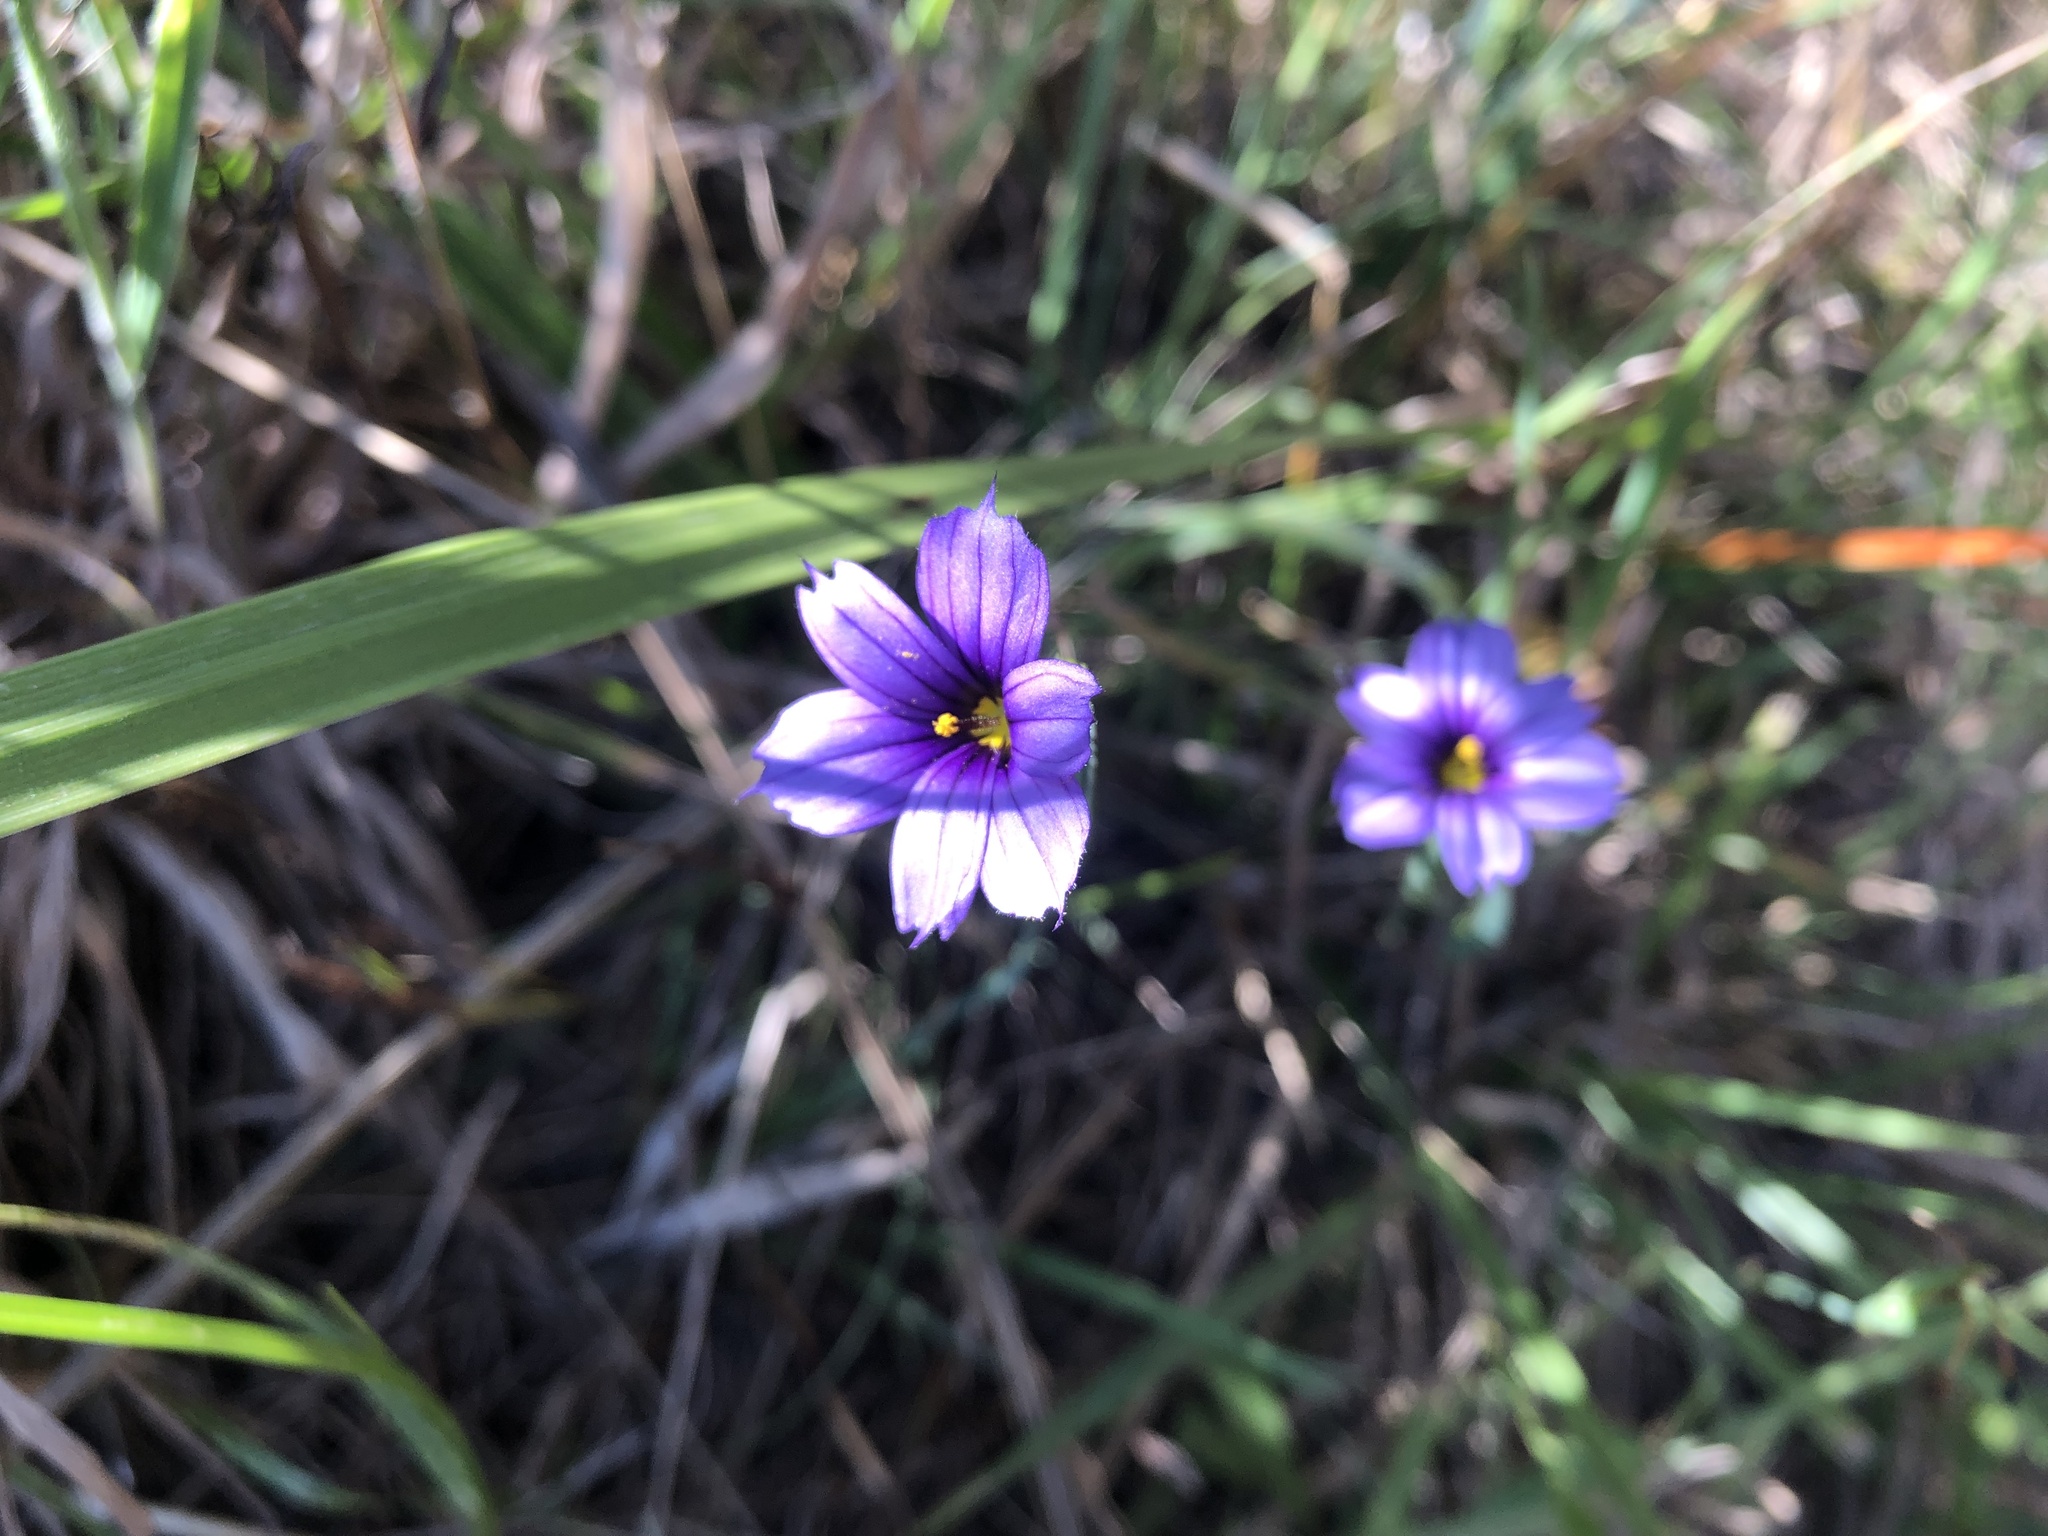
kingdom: Plantae
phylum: Tracheophyta
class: Liliopsida
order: Asparagales
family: Iridaceae
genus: Sisyrinchium
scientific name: Sisyrinchium bellum
